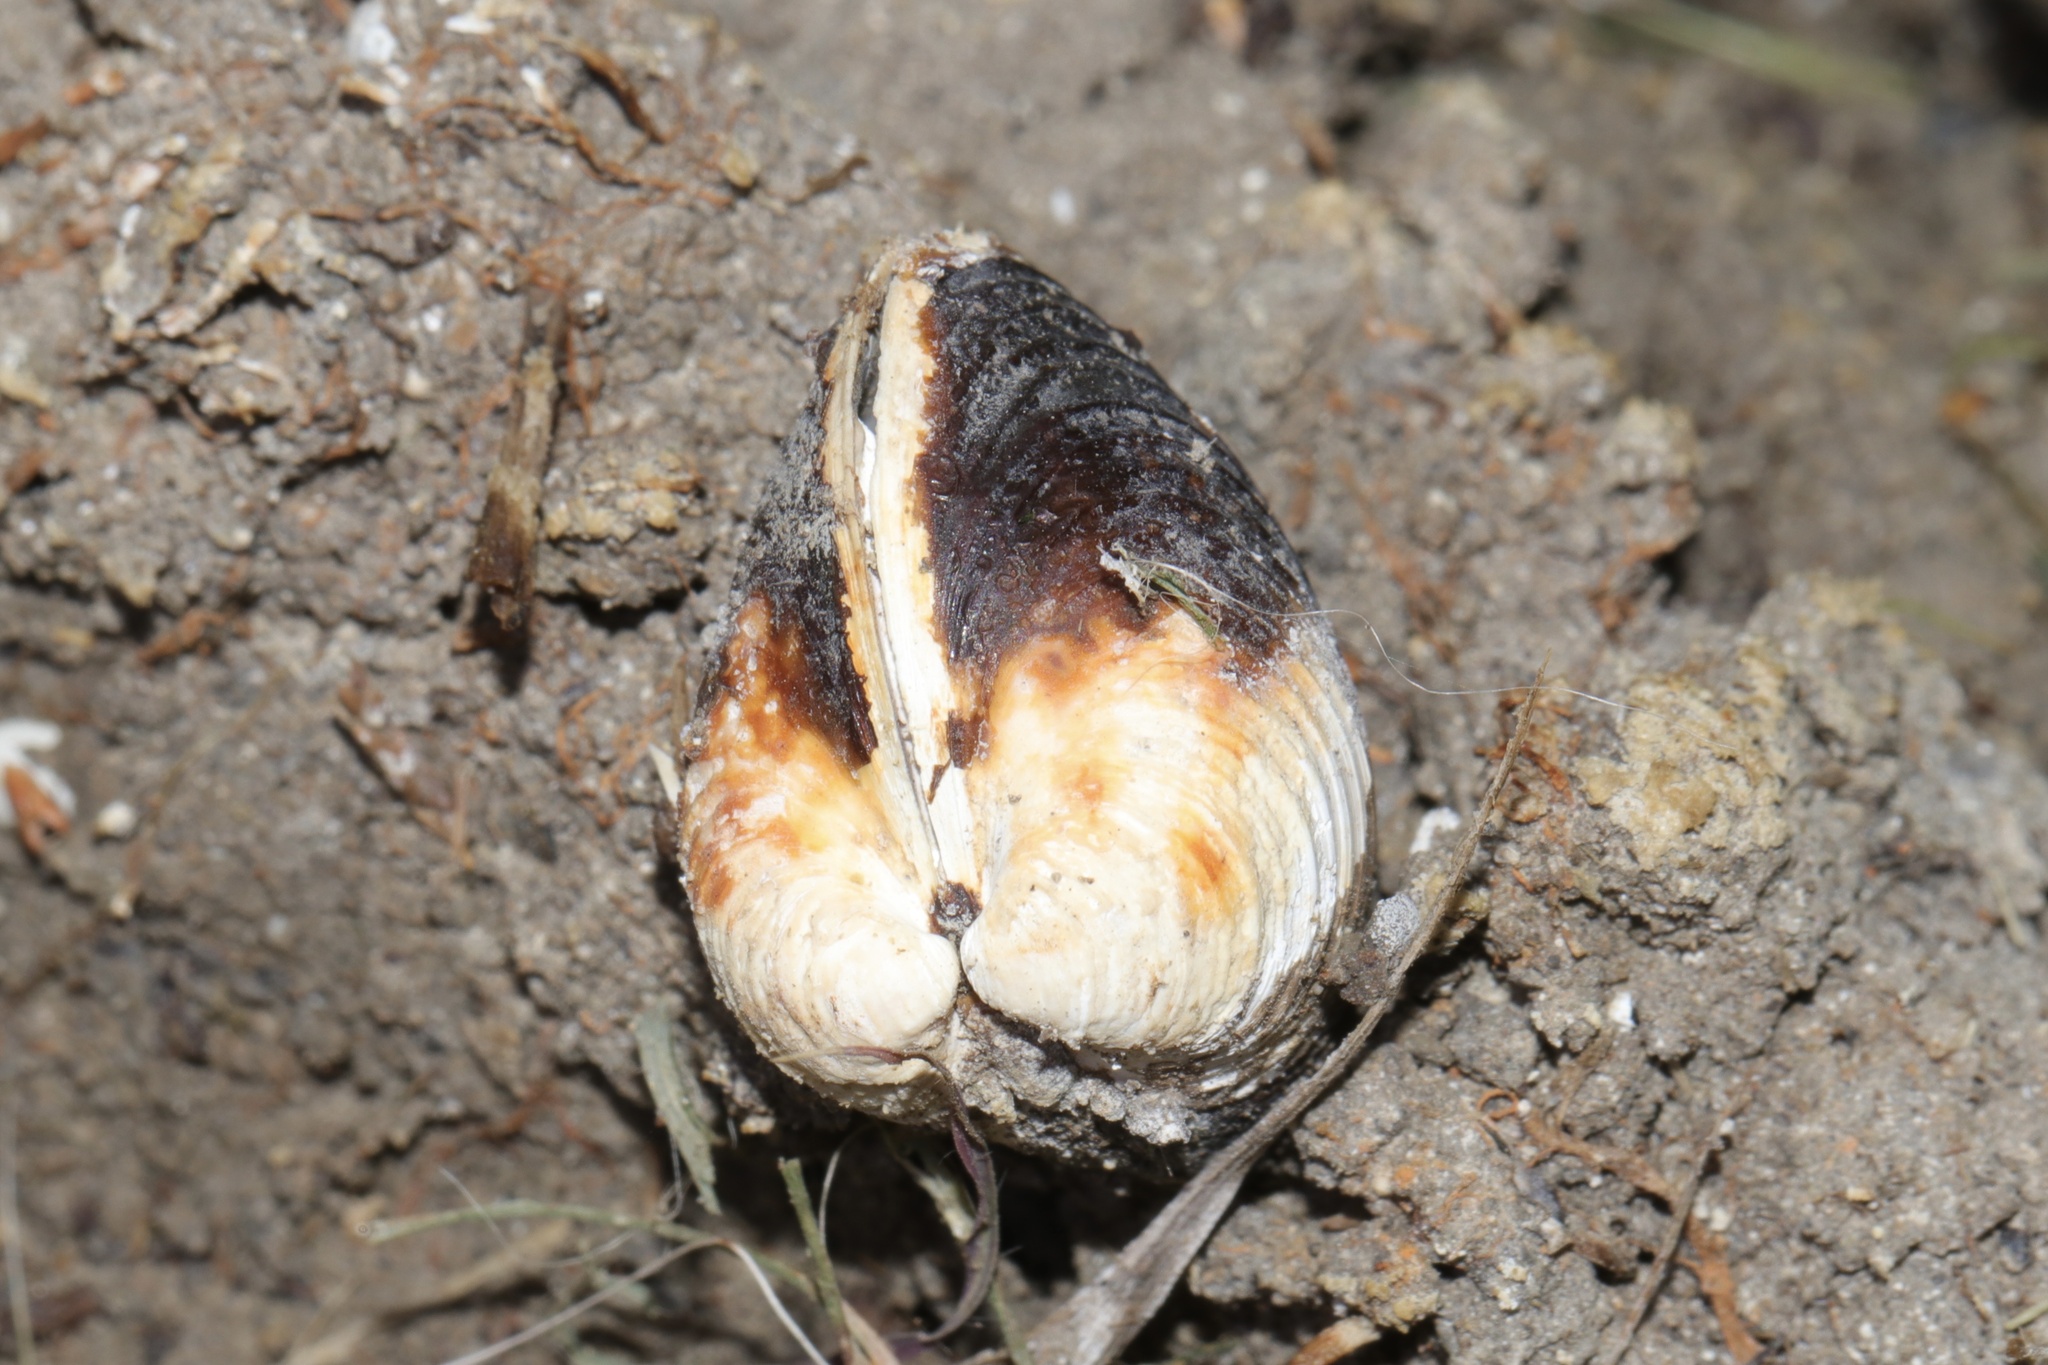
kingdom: Animalia
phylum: Mollusca
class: Bivalvia
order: Venerida
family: Cyrenidae
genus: Corbicula
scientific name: Corbicula fluminea
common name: Asian clam
